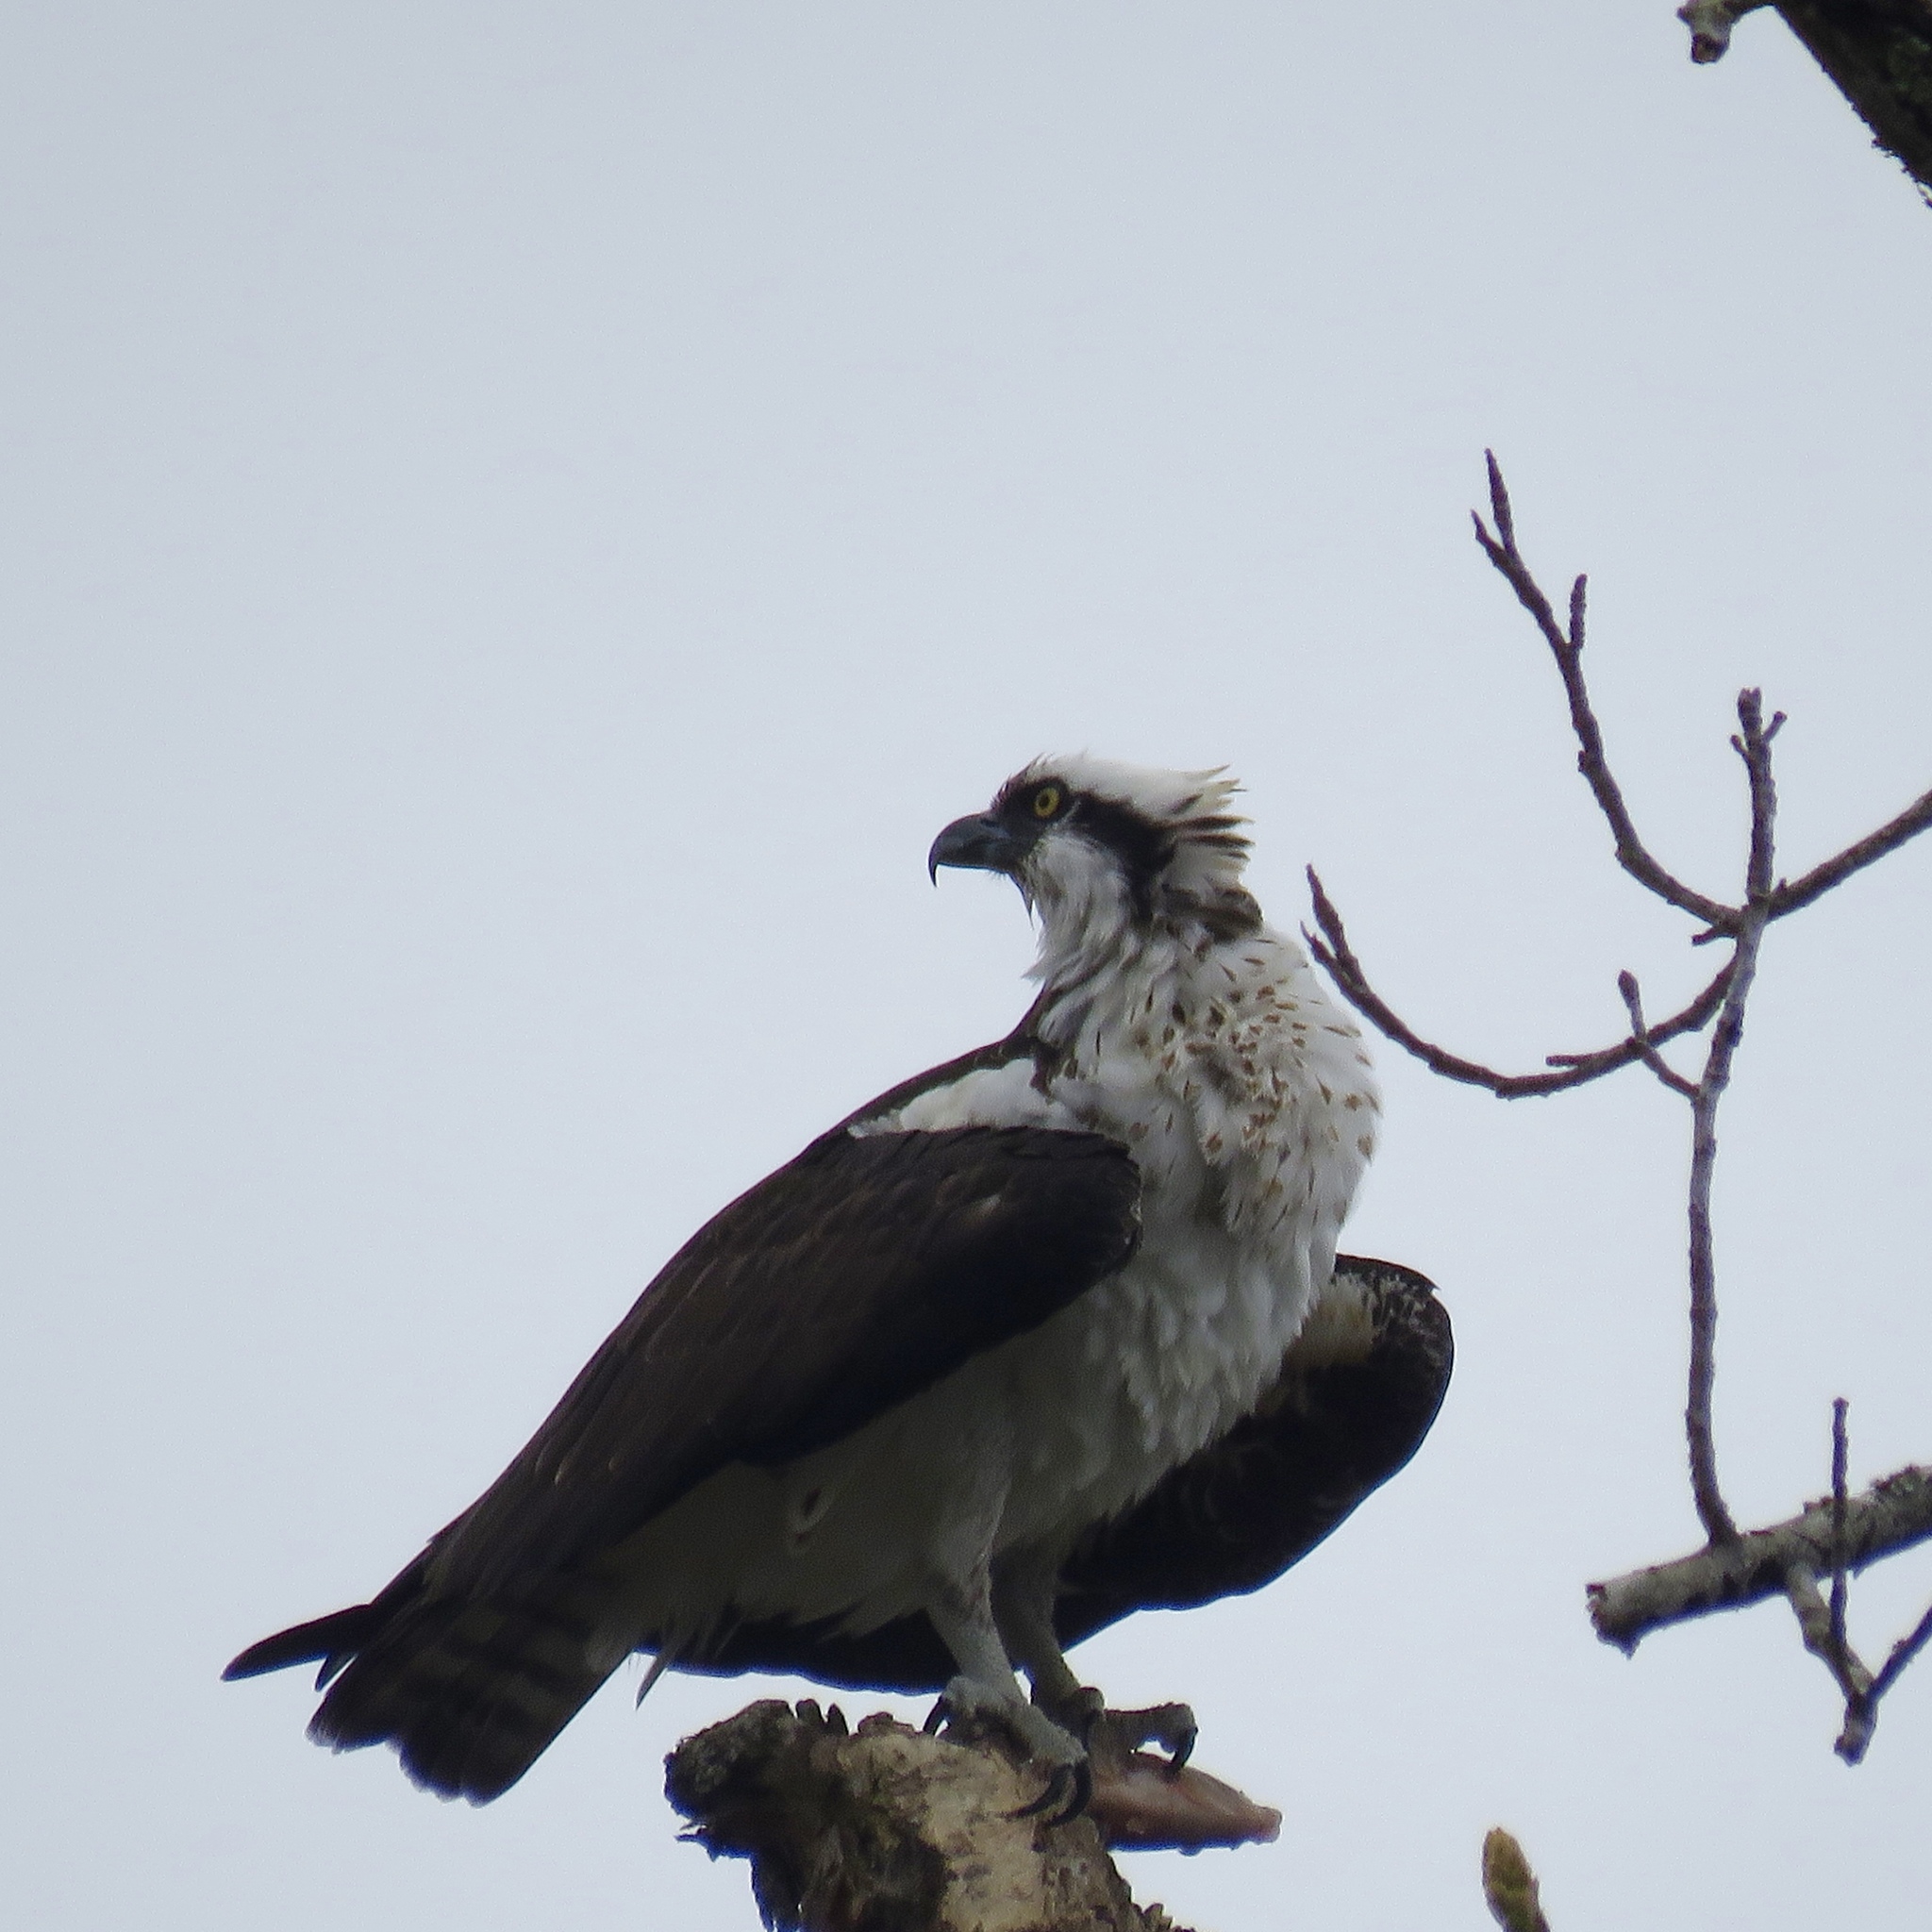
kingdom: Animalia
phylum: Chordata
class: Aves
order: Accipitriformes
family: Pandionidae
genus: Pandion
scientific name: Pandion haliaetus
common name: Osprey
